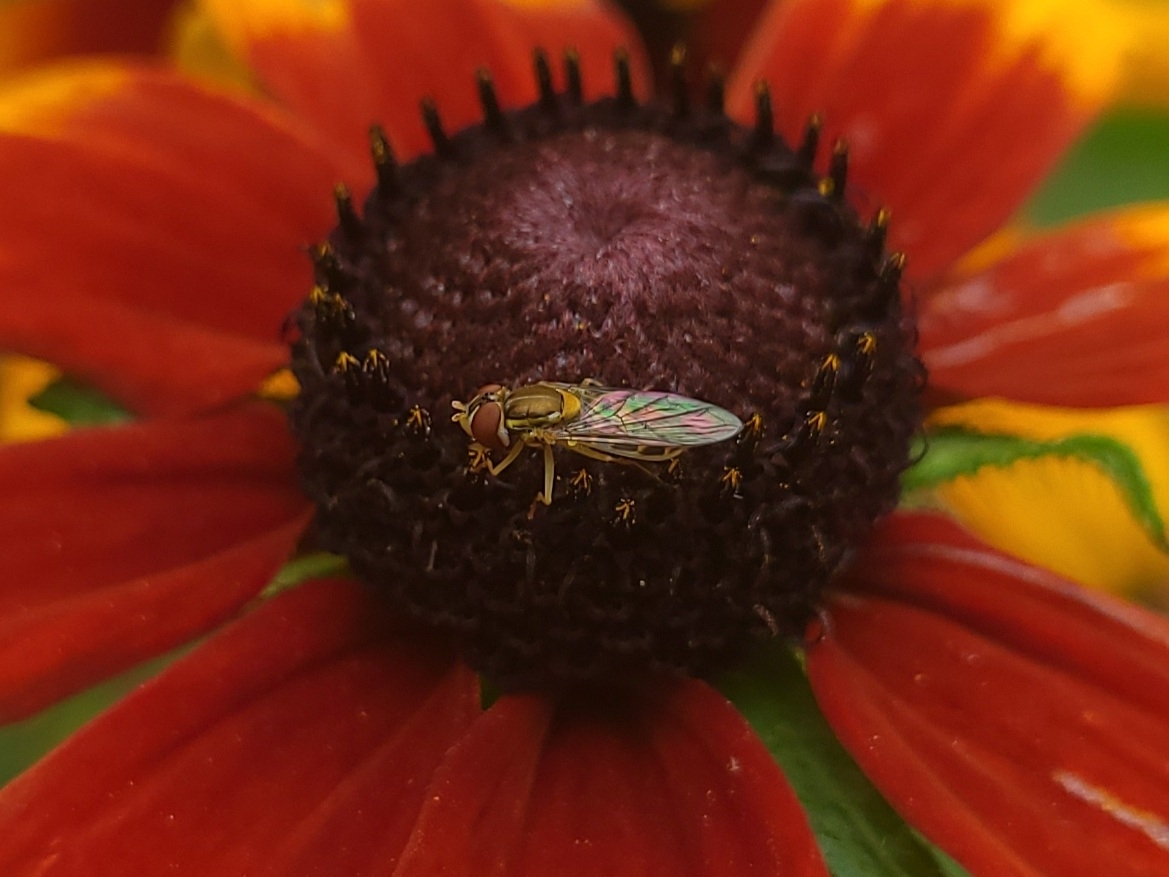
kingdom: Animalia
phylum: Arthropoda
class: Insecta
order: Diptera
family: Syrphidae
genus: Toxomerus
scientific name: Toxomerus marginatus
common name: Syrphid fly
